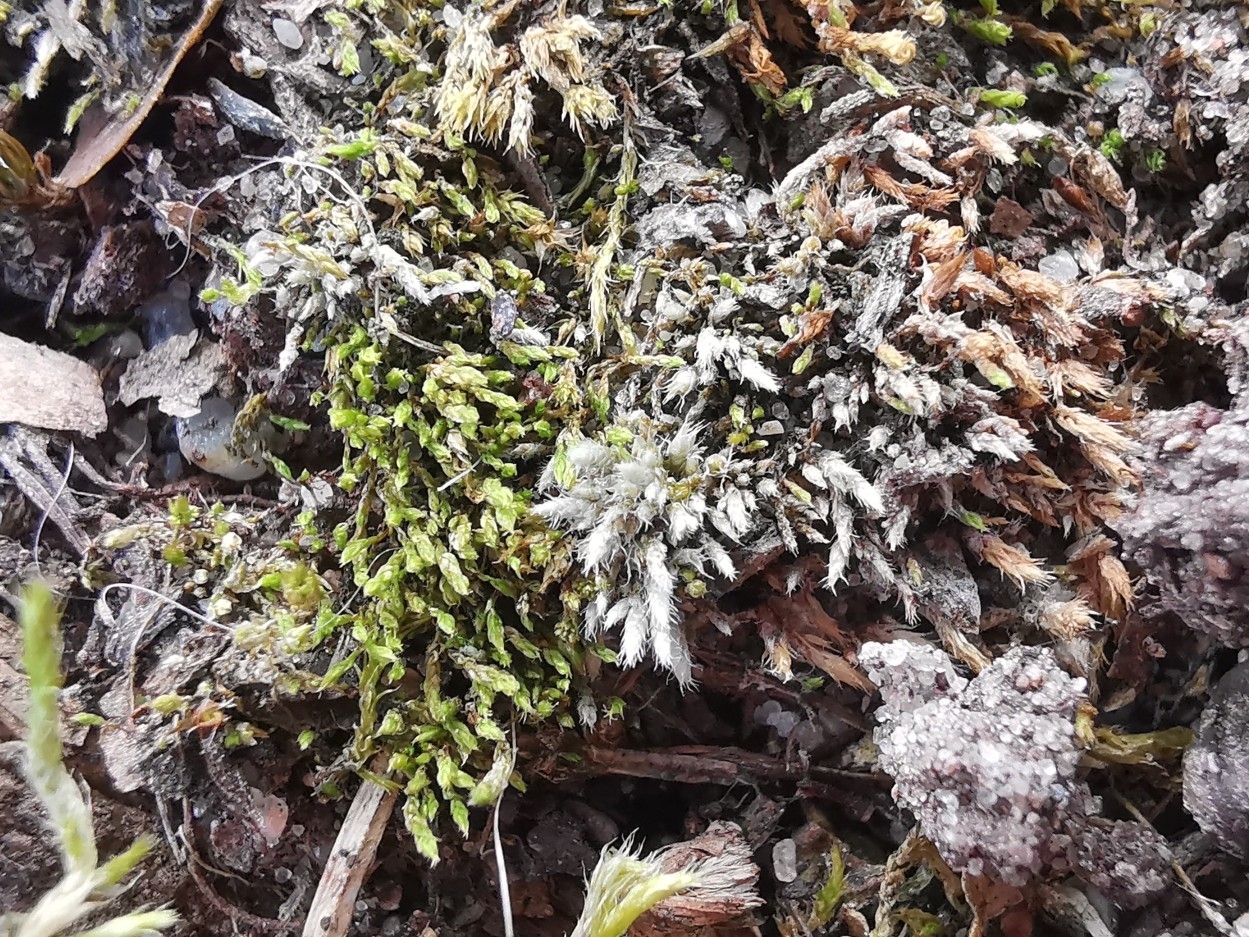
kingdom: Plantae
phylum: Bryophyta
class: Bryopsida
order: Bryales
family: Bryaceae
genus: Bryum
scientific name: Bryum argenteum
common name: Silver-moss
